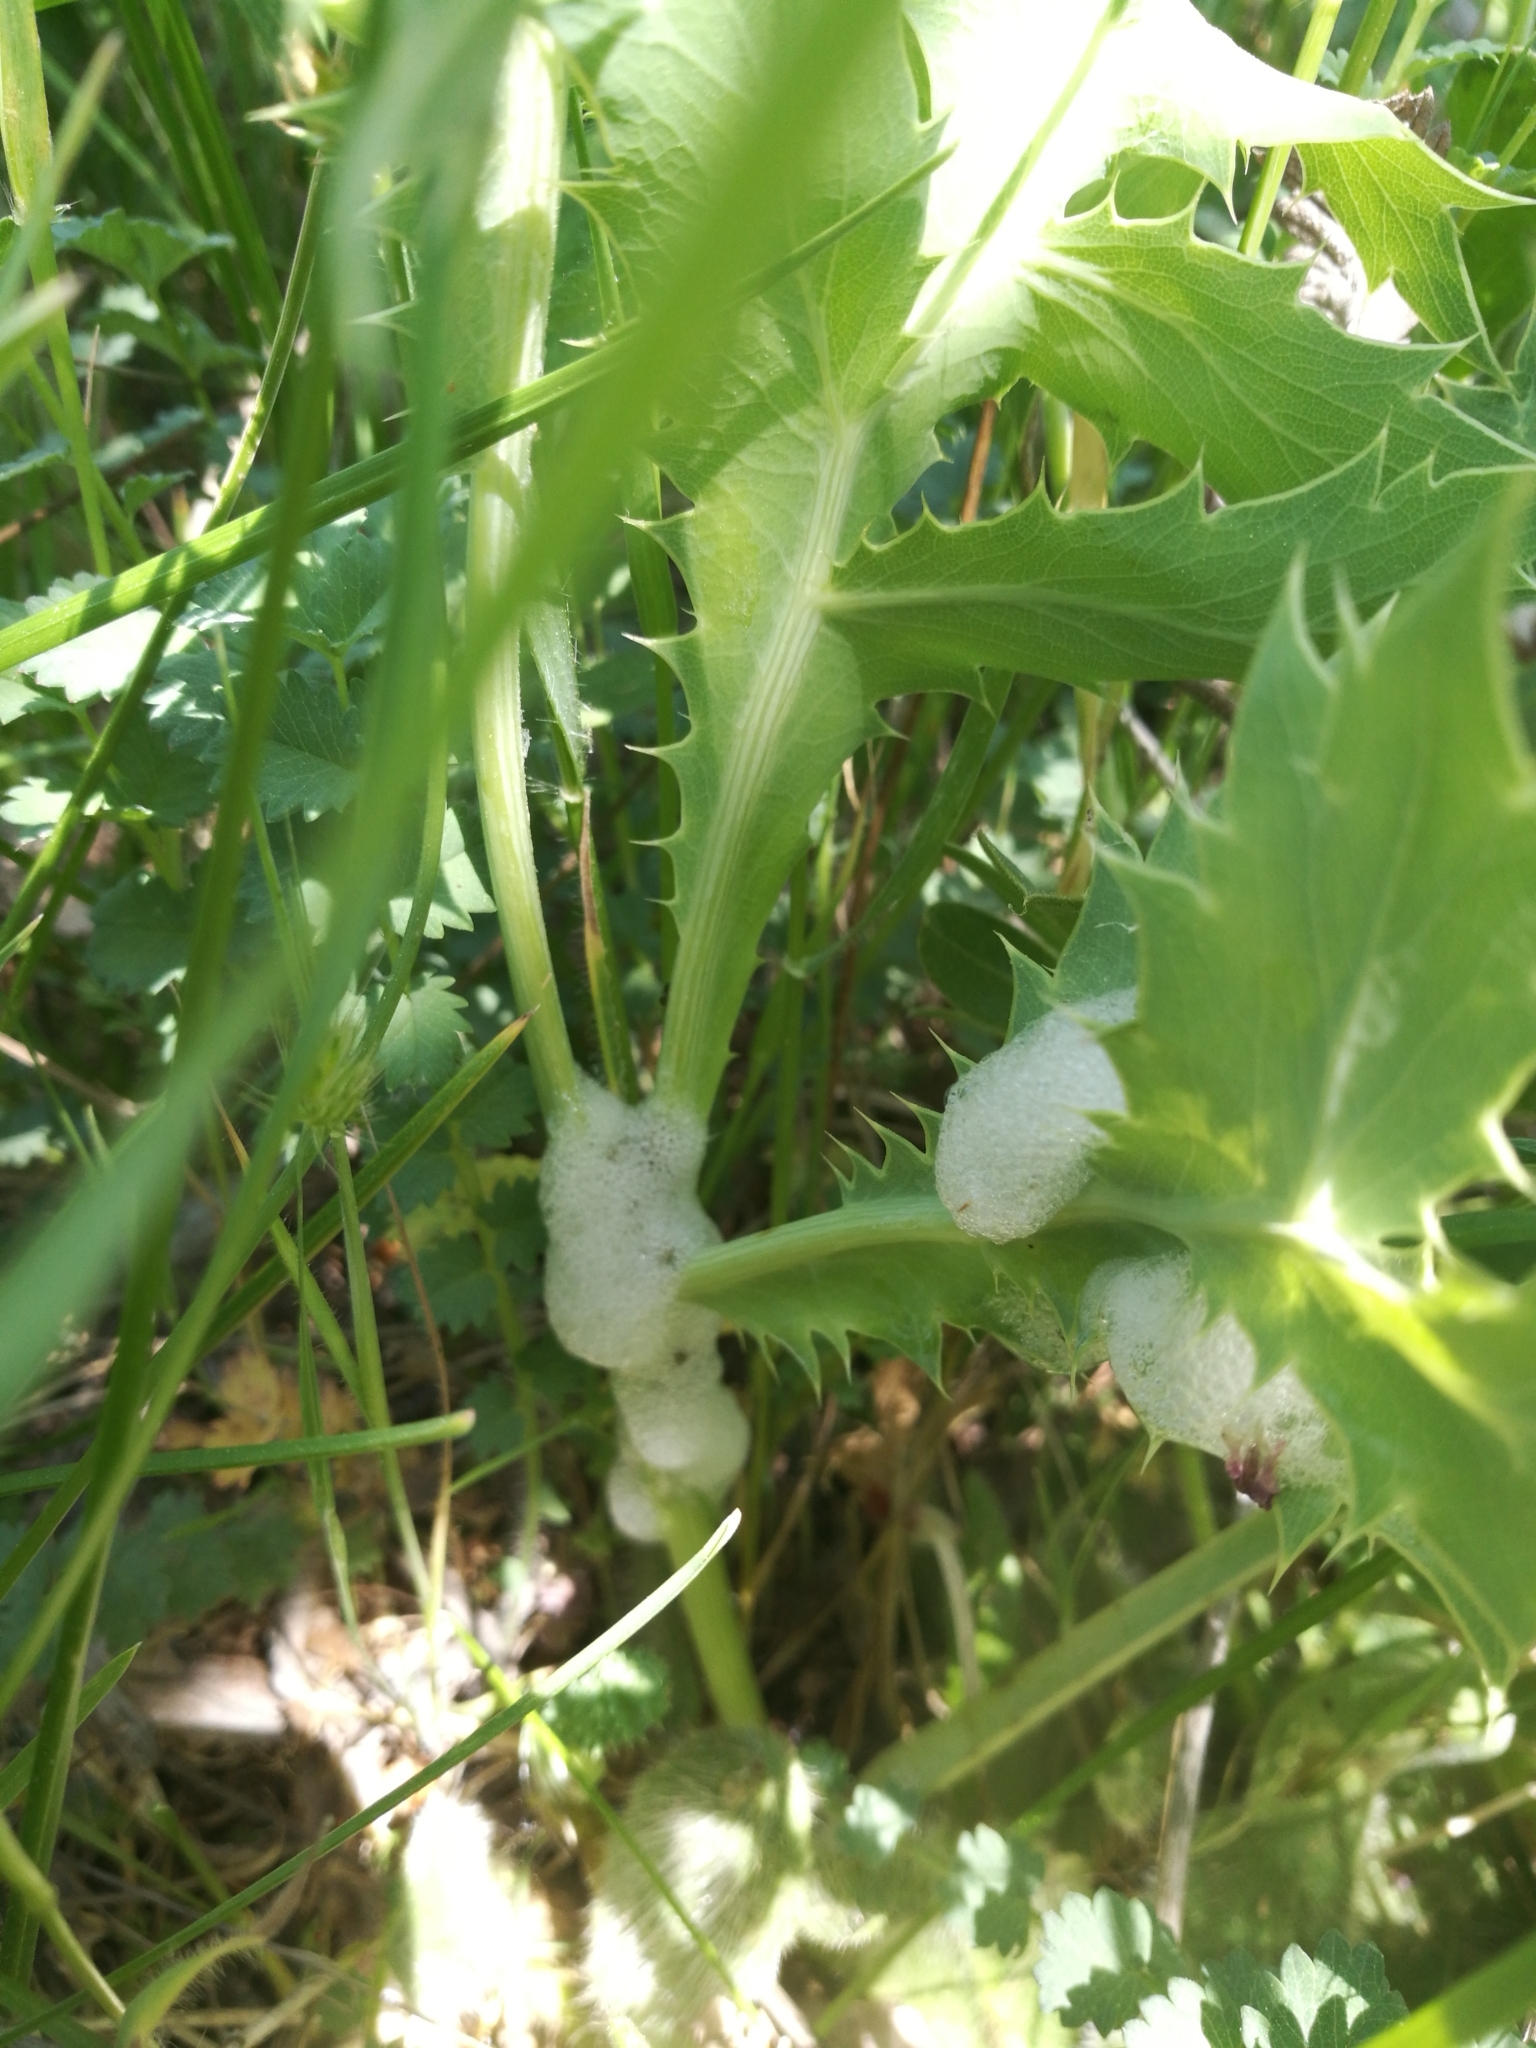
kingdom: Animalia
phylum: Arthropoda
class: Insecta
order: Hemiptera
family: Aphrophoridae
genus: Philaenus
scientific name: Philaenus spumarius
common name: Meadow spittlebug
